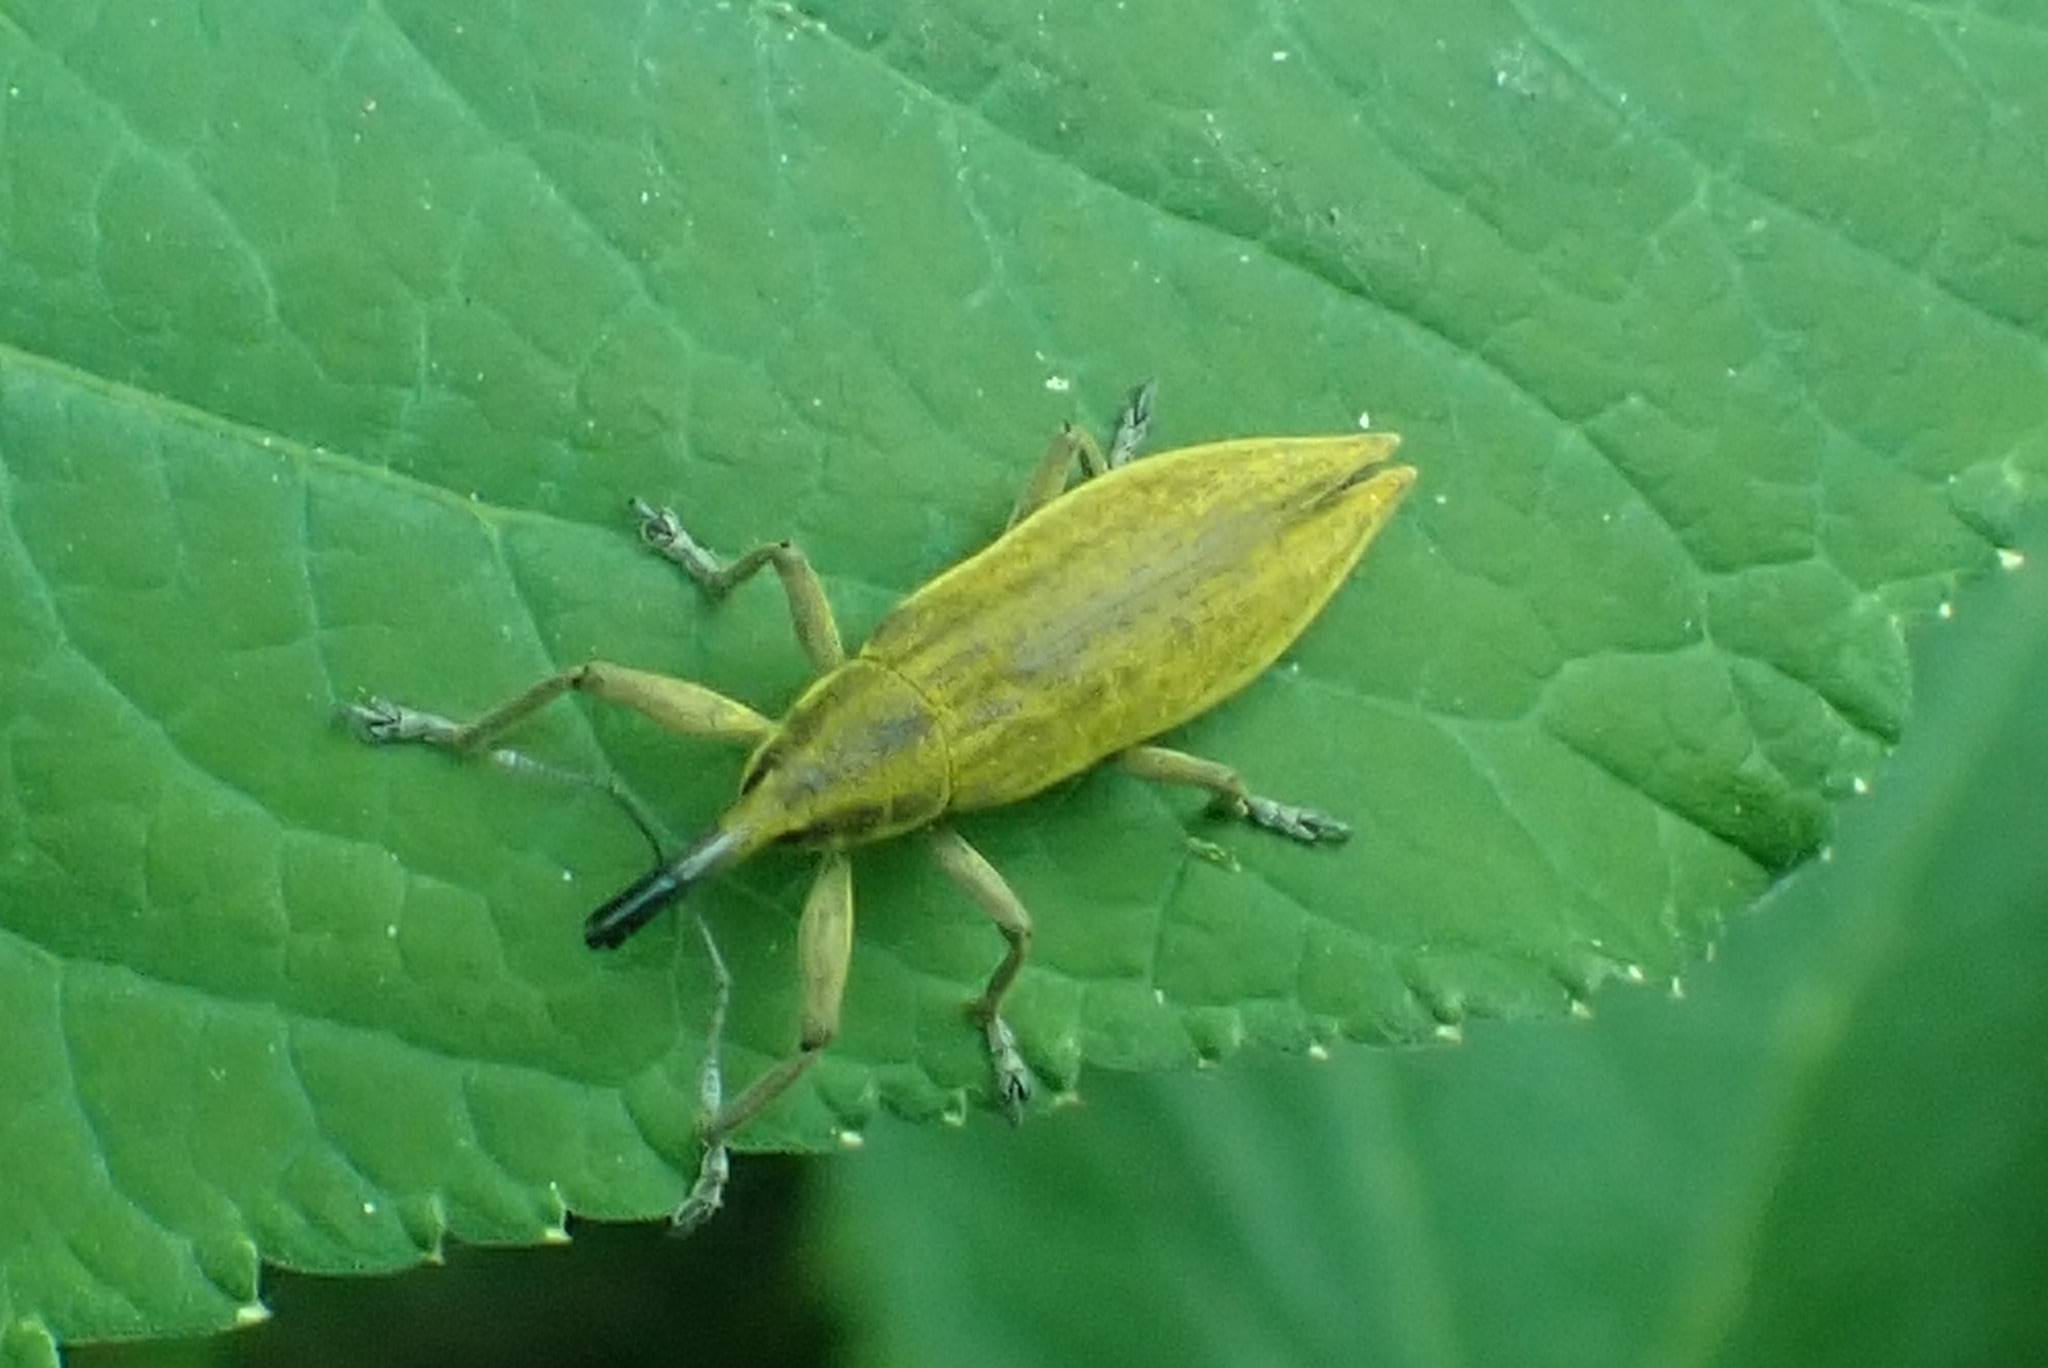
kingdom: Animalia
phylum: Arthropoda
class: Insecta
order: Coleoptera
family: Curculionidae
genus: Lixus
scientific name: Lixus iridis
